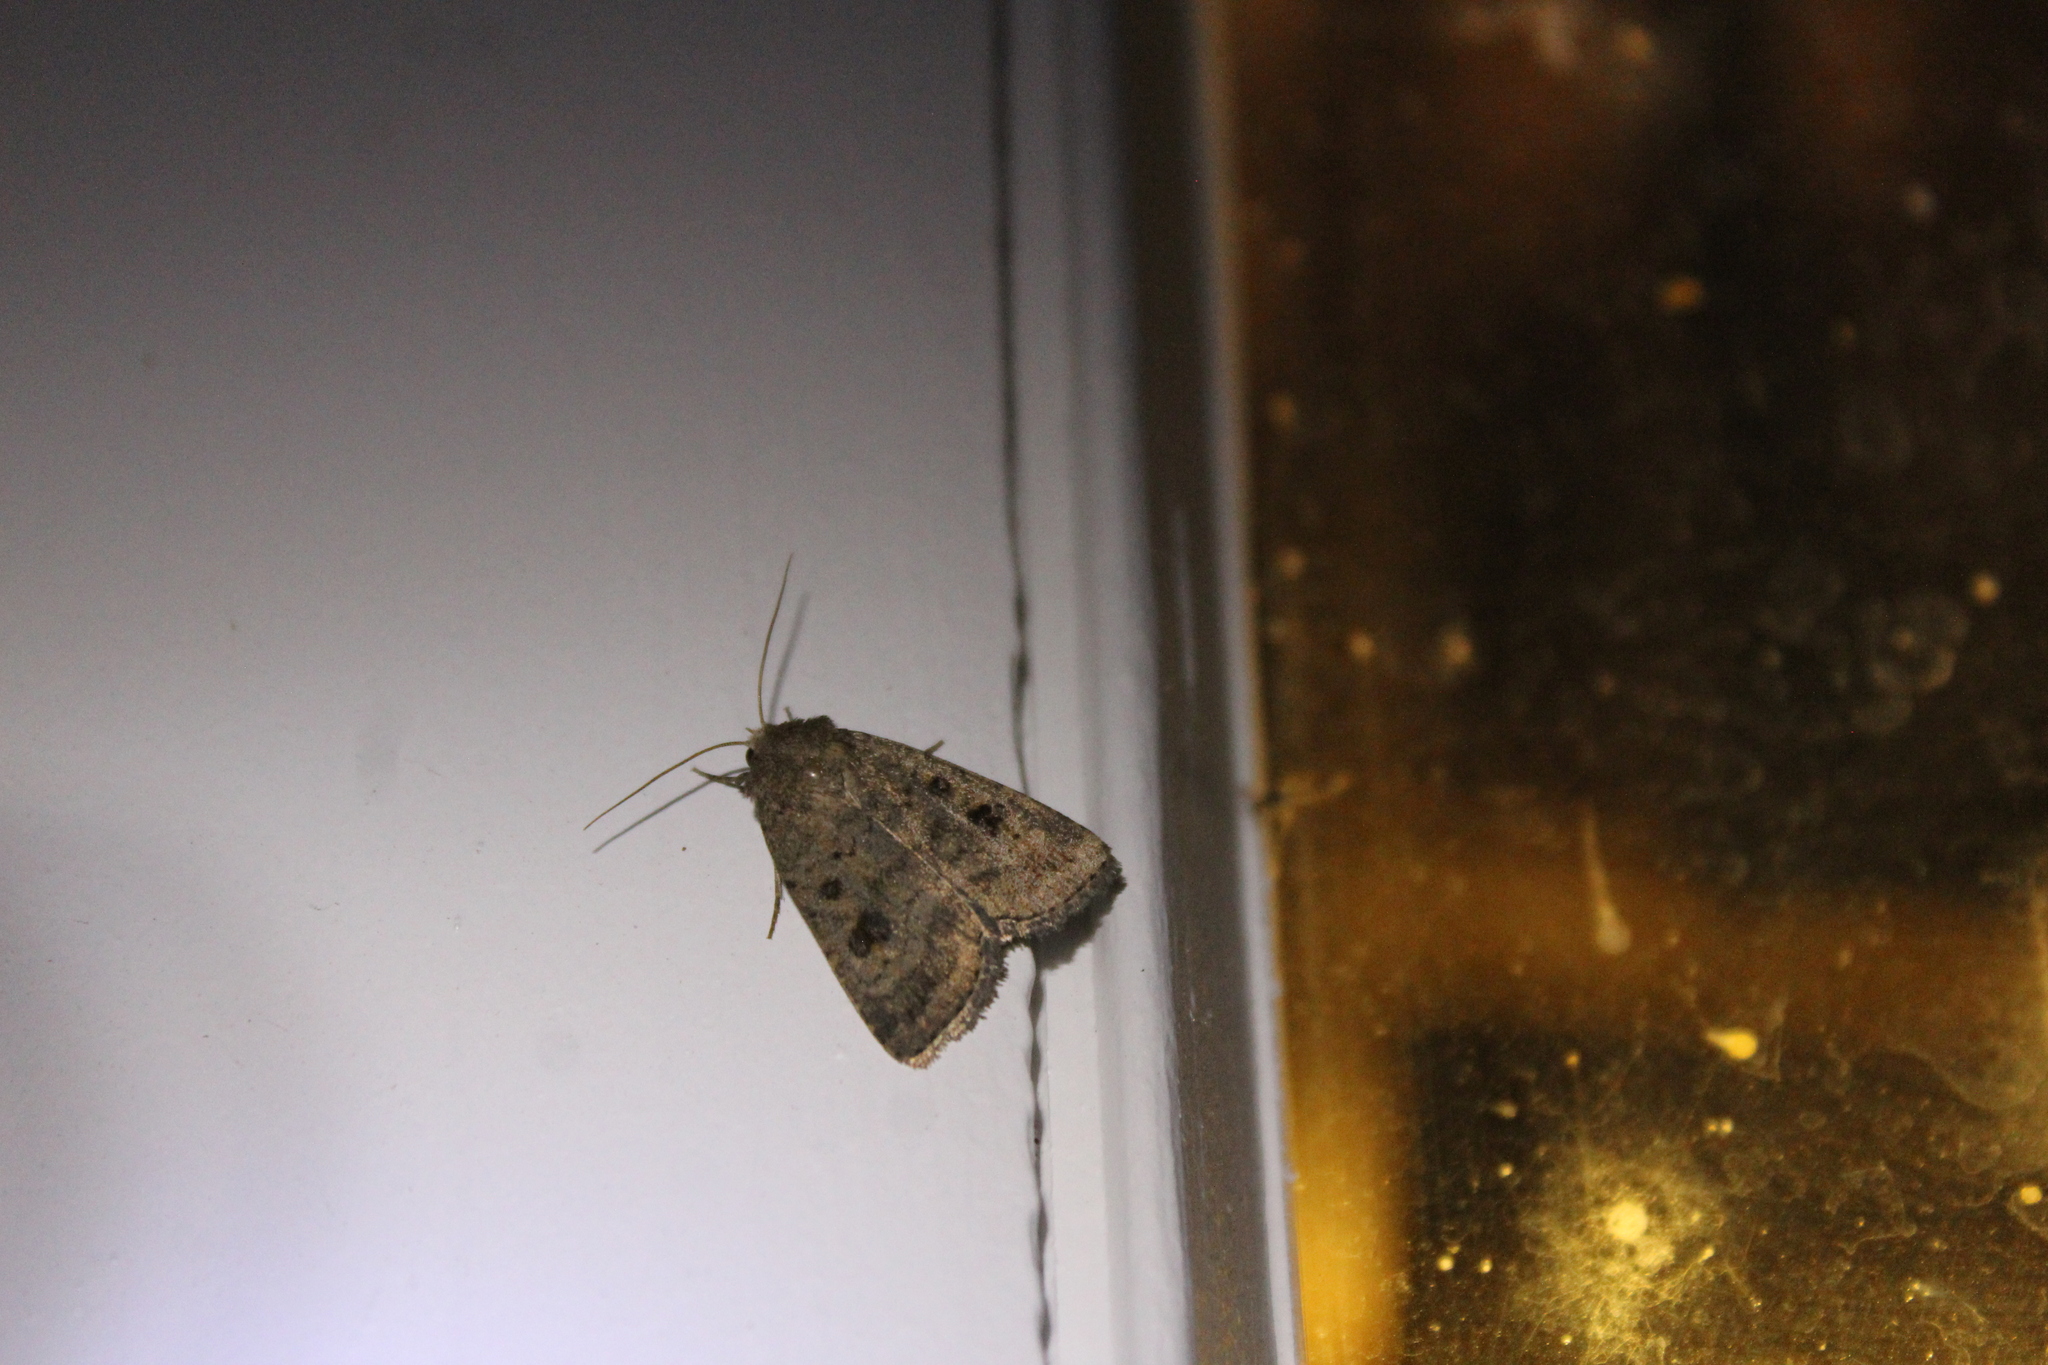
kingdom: Animalia
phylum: Arthropoda
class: Insecta
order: Lepidoptera
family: Noctuidae
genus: Caradrina
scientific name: Caradrina morpheus
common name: Mottled rustic
